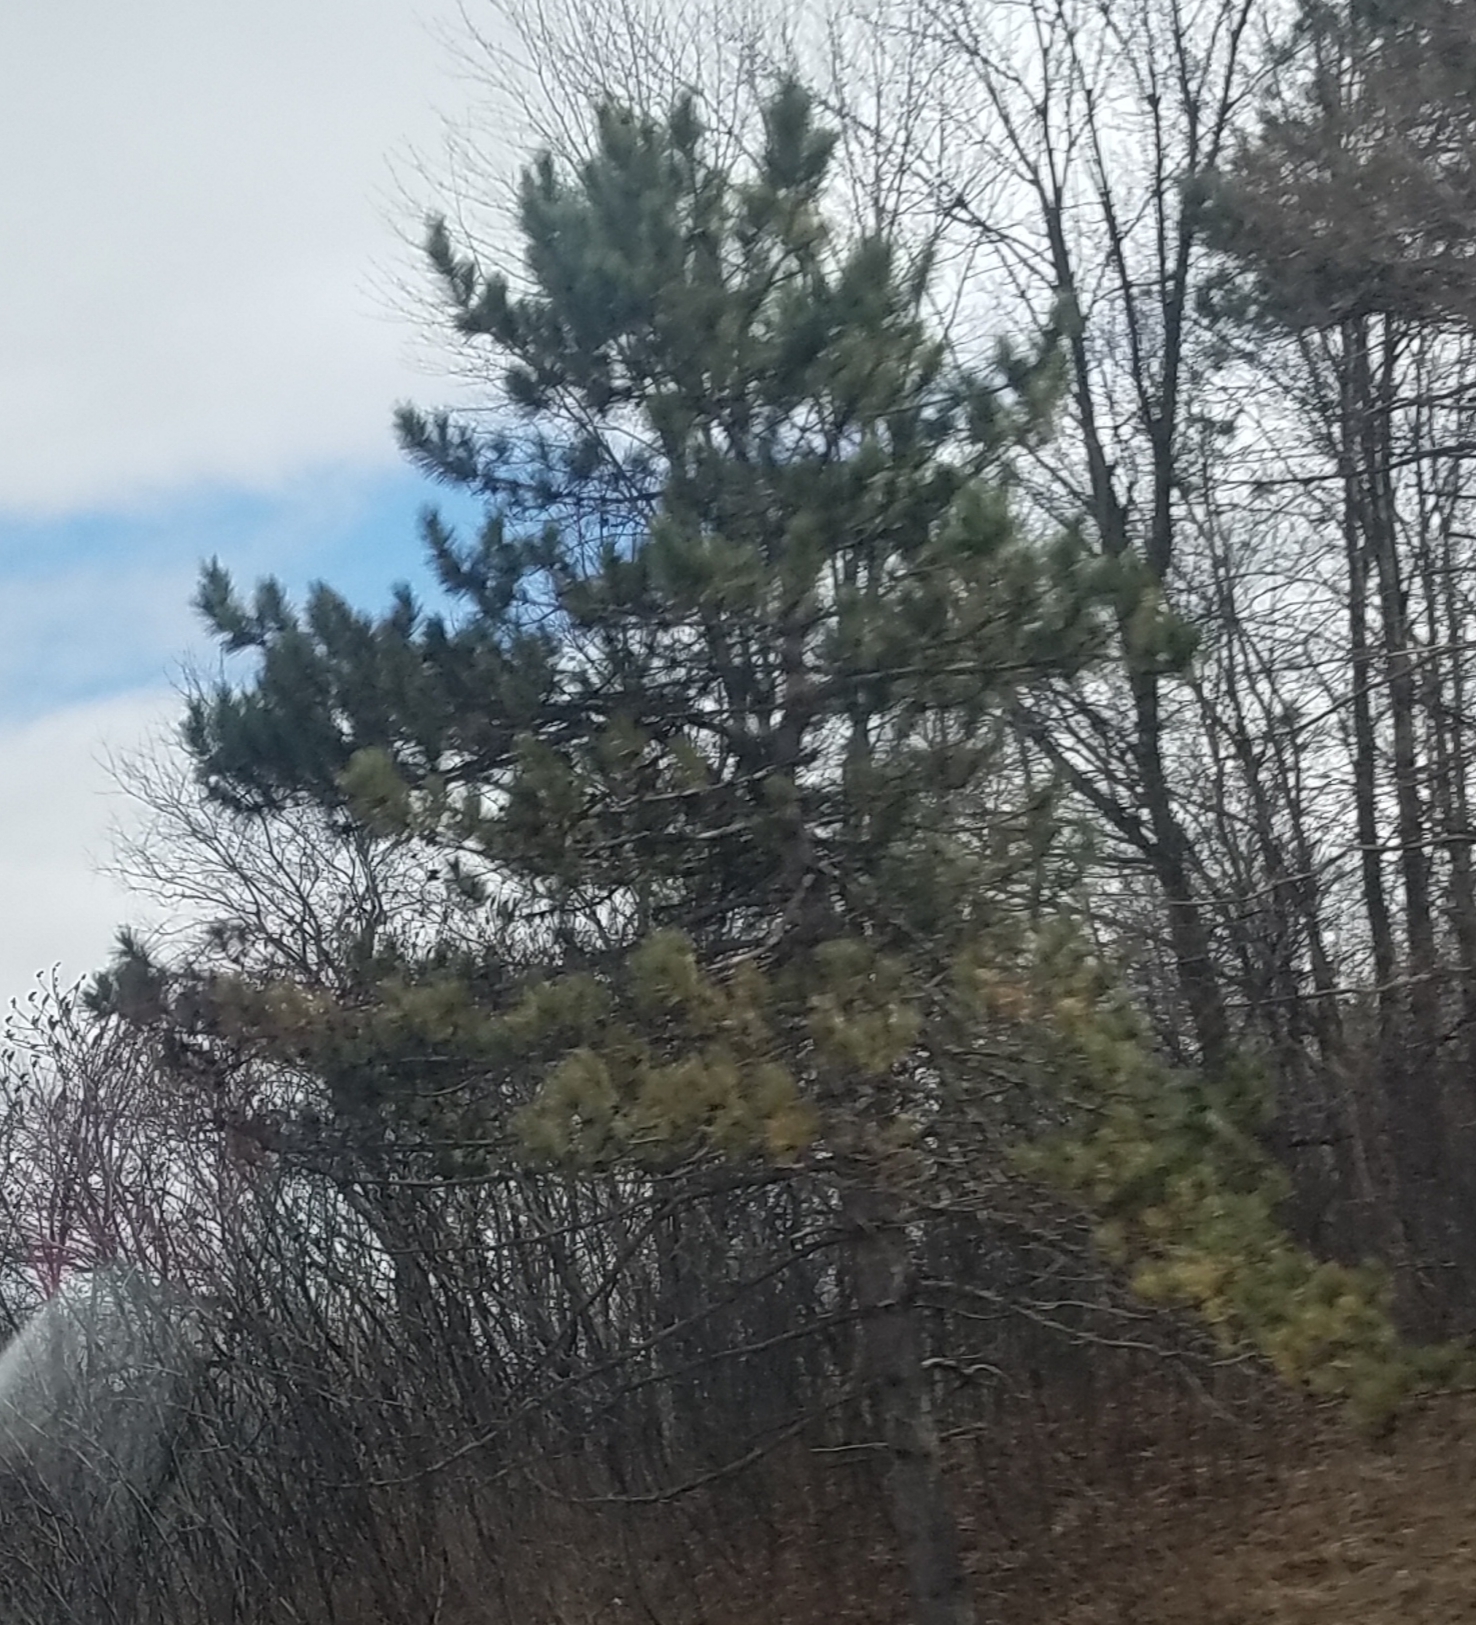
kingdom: Plantae
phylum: Tracheophyta
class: Pinopsida
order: Pinales
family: Pinaceae
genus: Pinus
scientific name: Pinus strobus
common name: Weymouth pine
